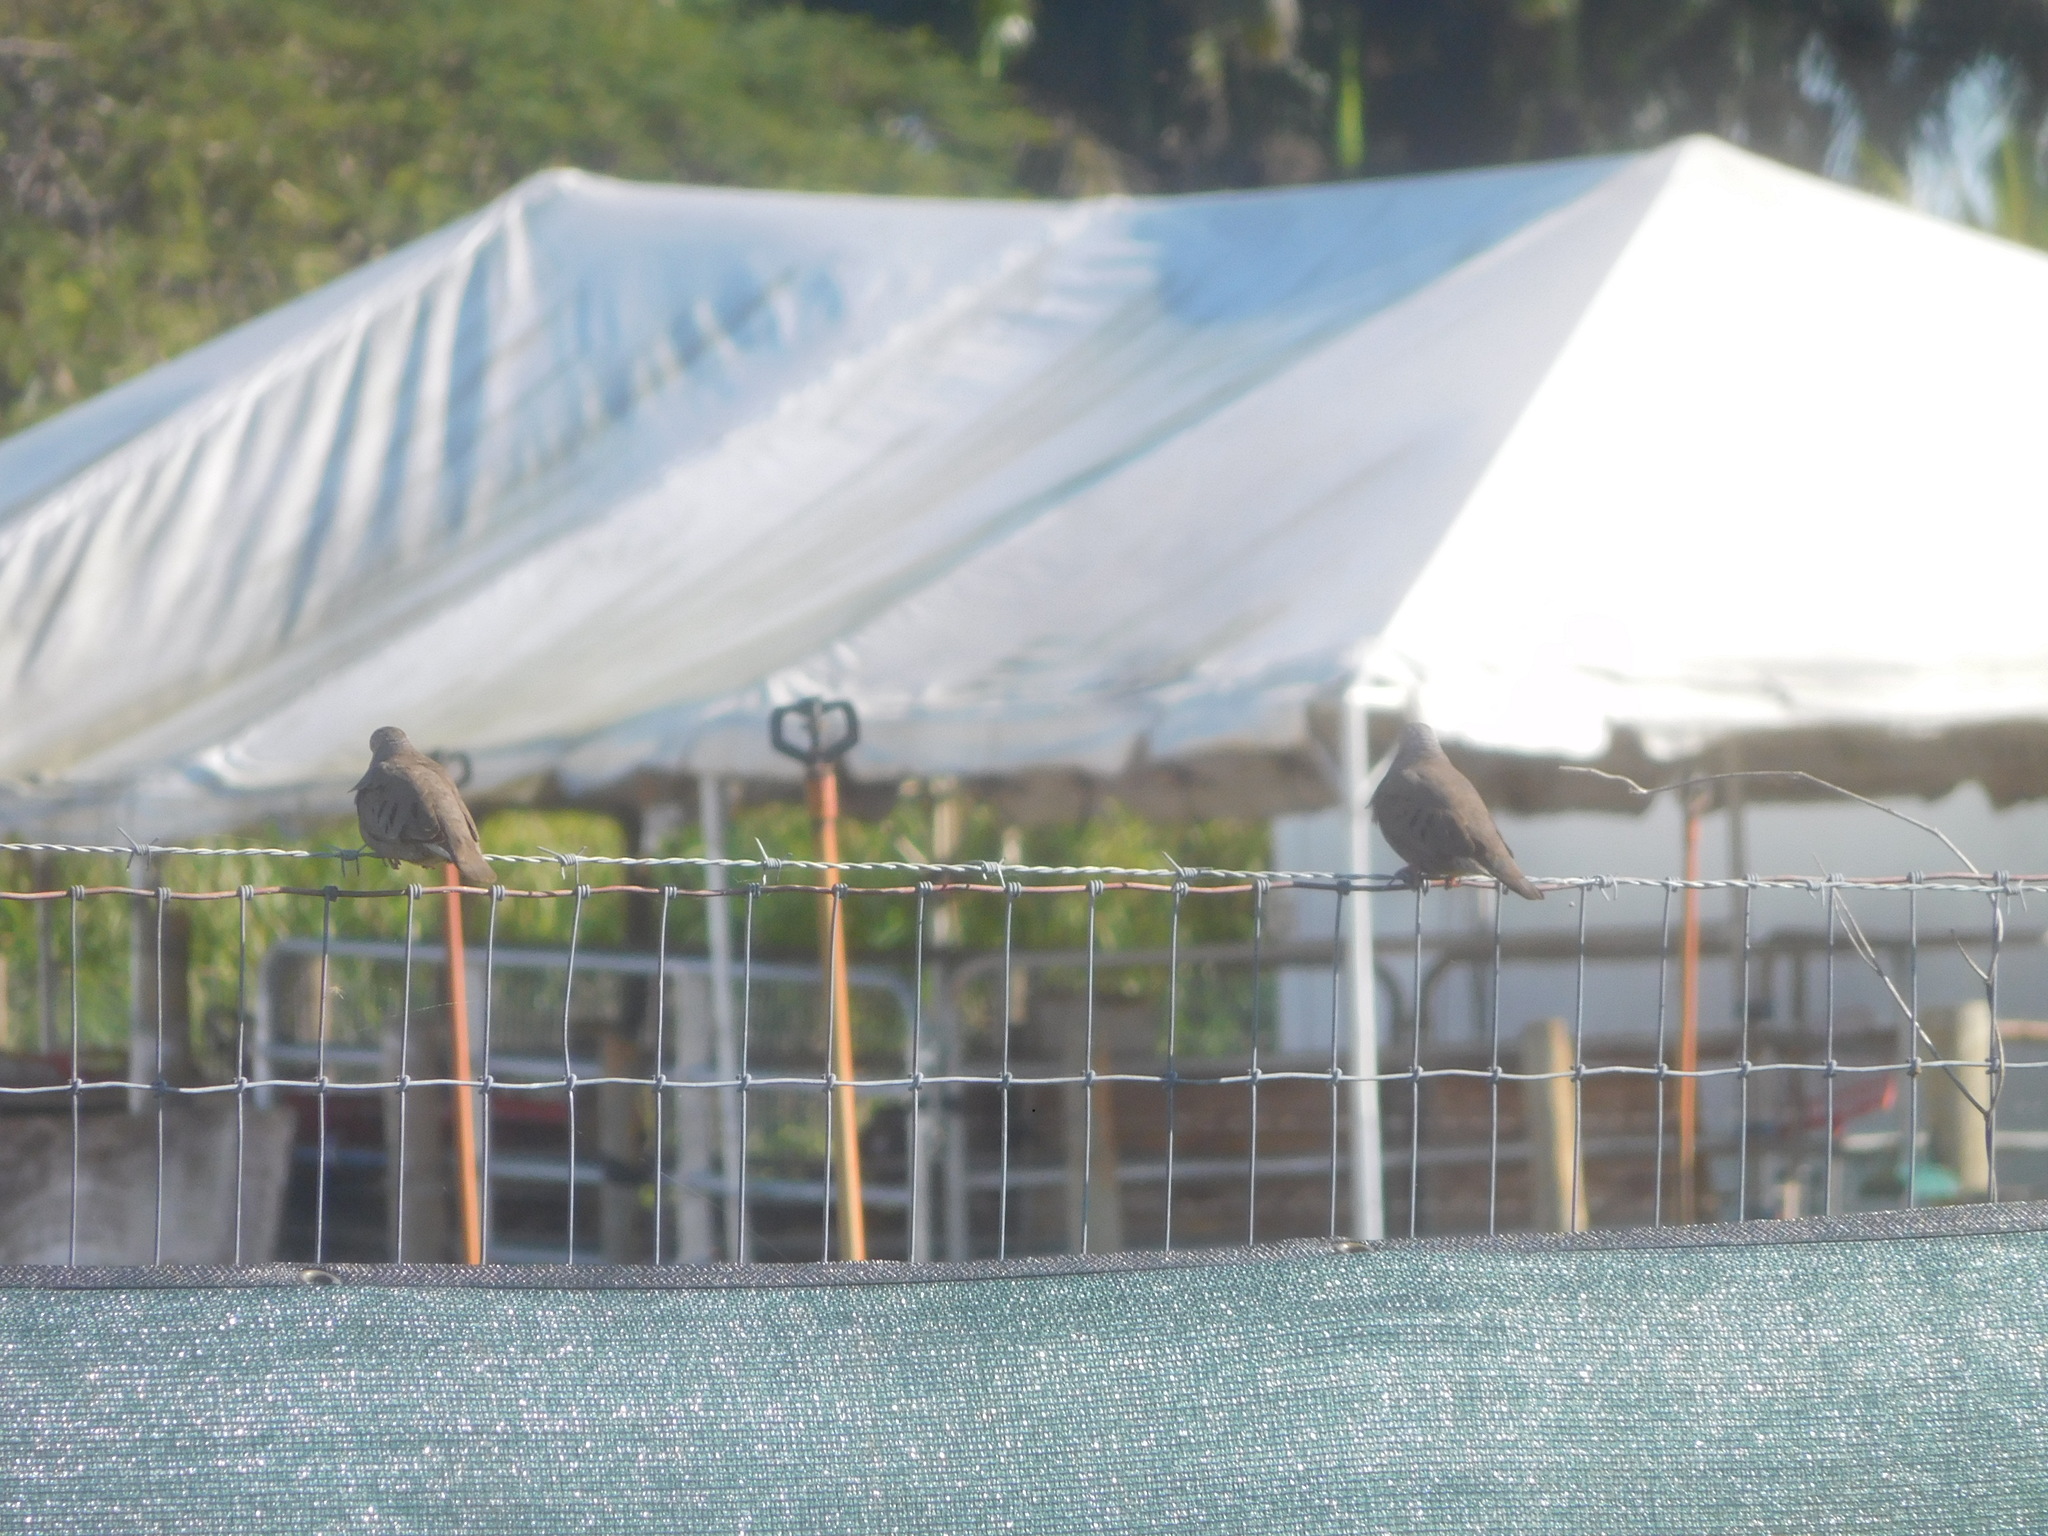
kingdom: Animalia
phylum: Chordata
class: Aves
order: Columbiformes
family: Columbidae
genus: Zenaida
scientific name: Zenaida macroura
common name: Mourning dove
